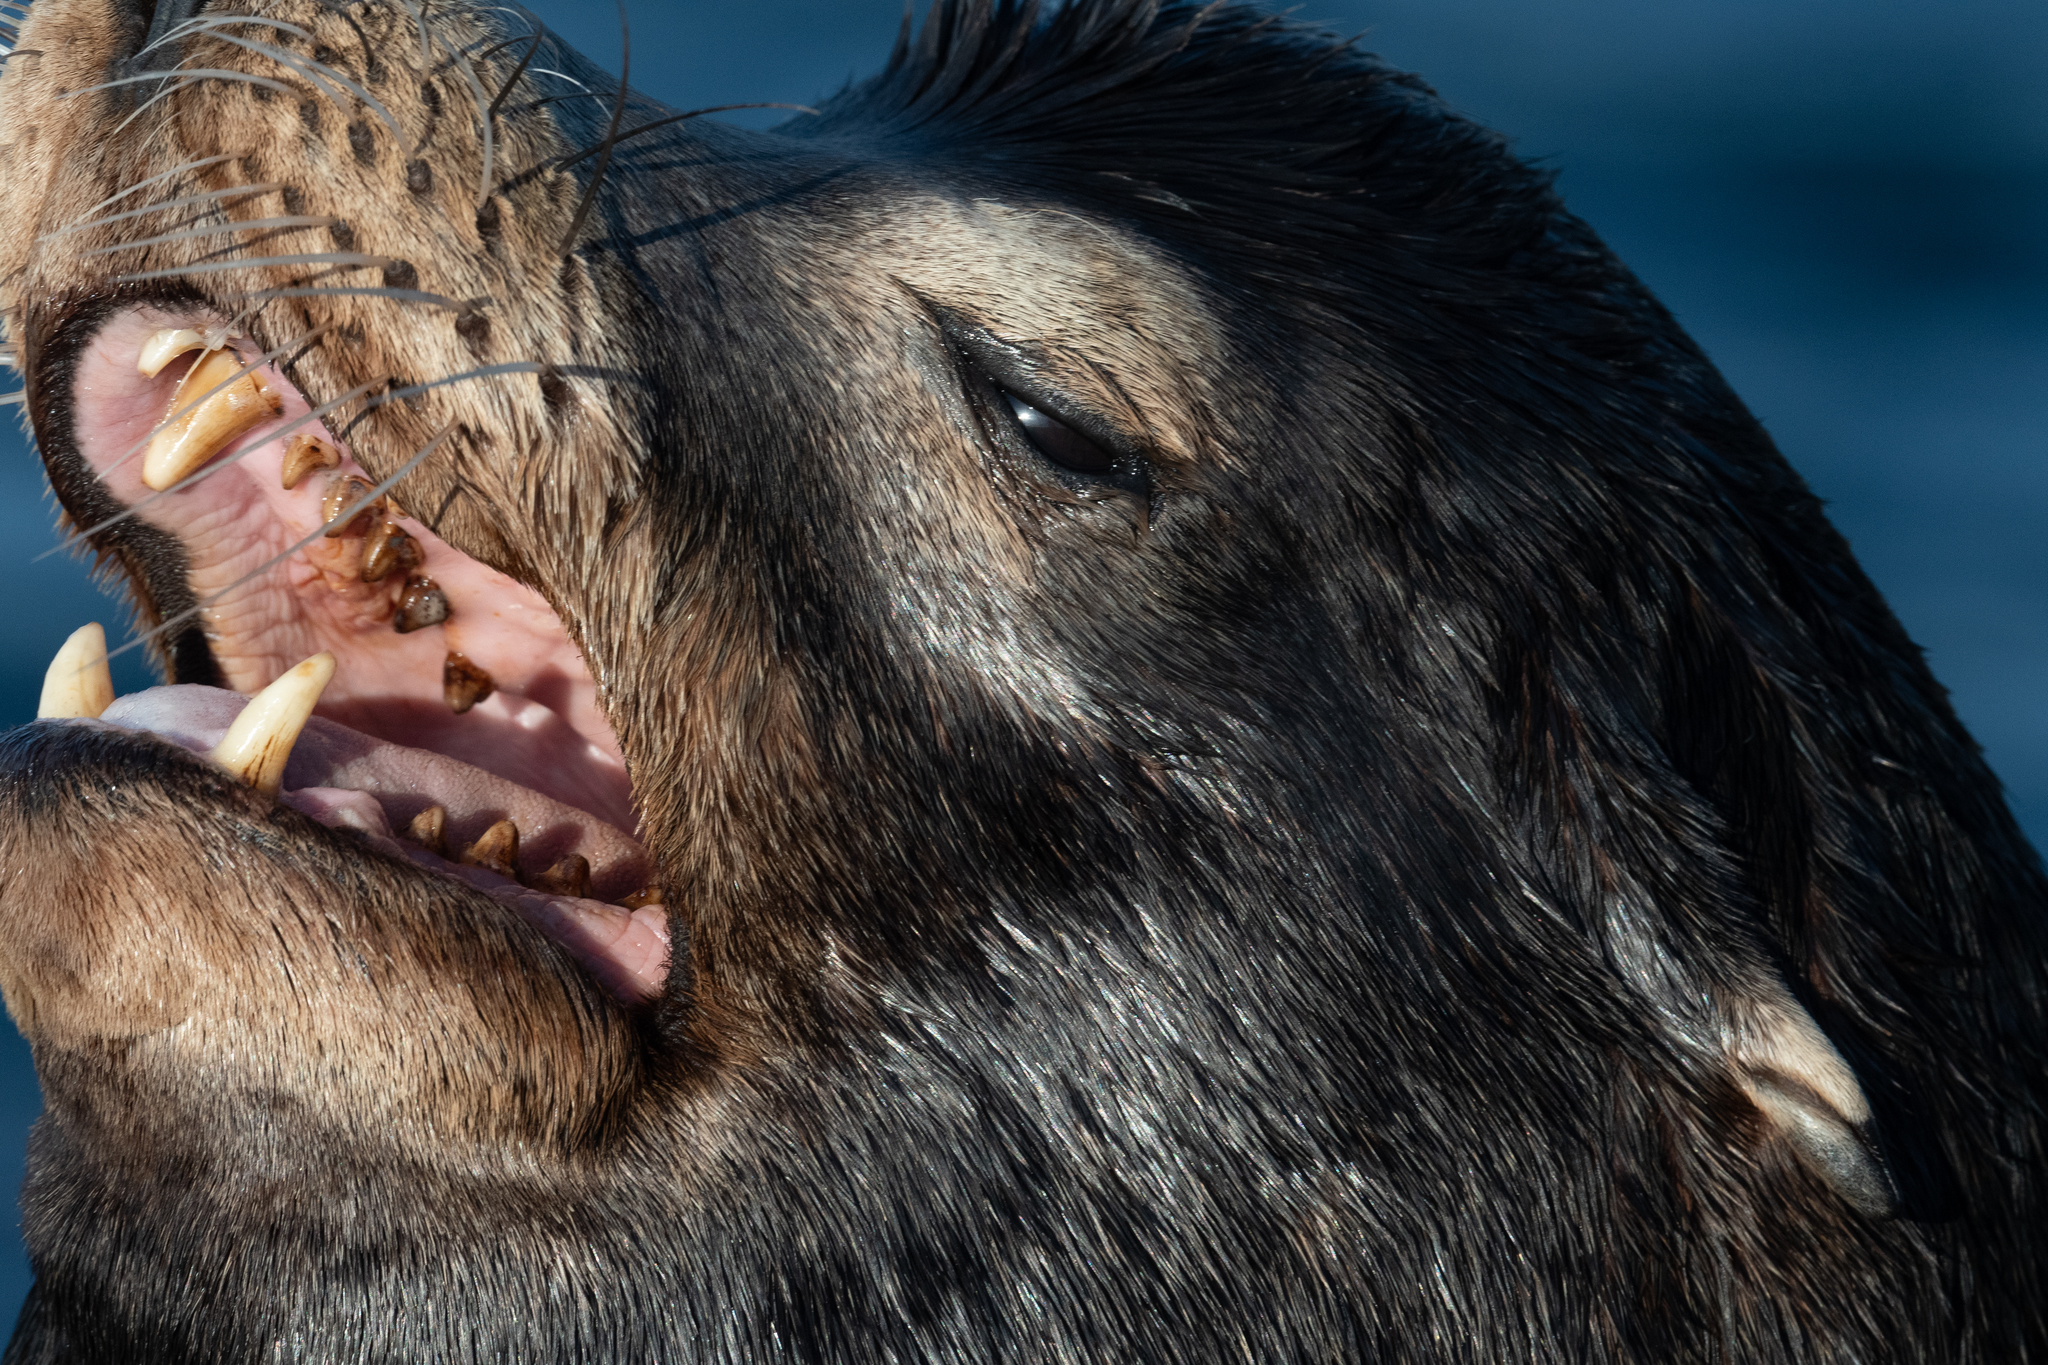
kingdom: Animalia
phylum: Chordata
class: Mammalia
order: Carnivora
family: Otariidae
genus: Zalophus
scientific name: Zalophus californianus
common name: California sea lion
